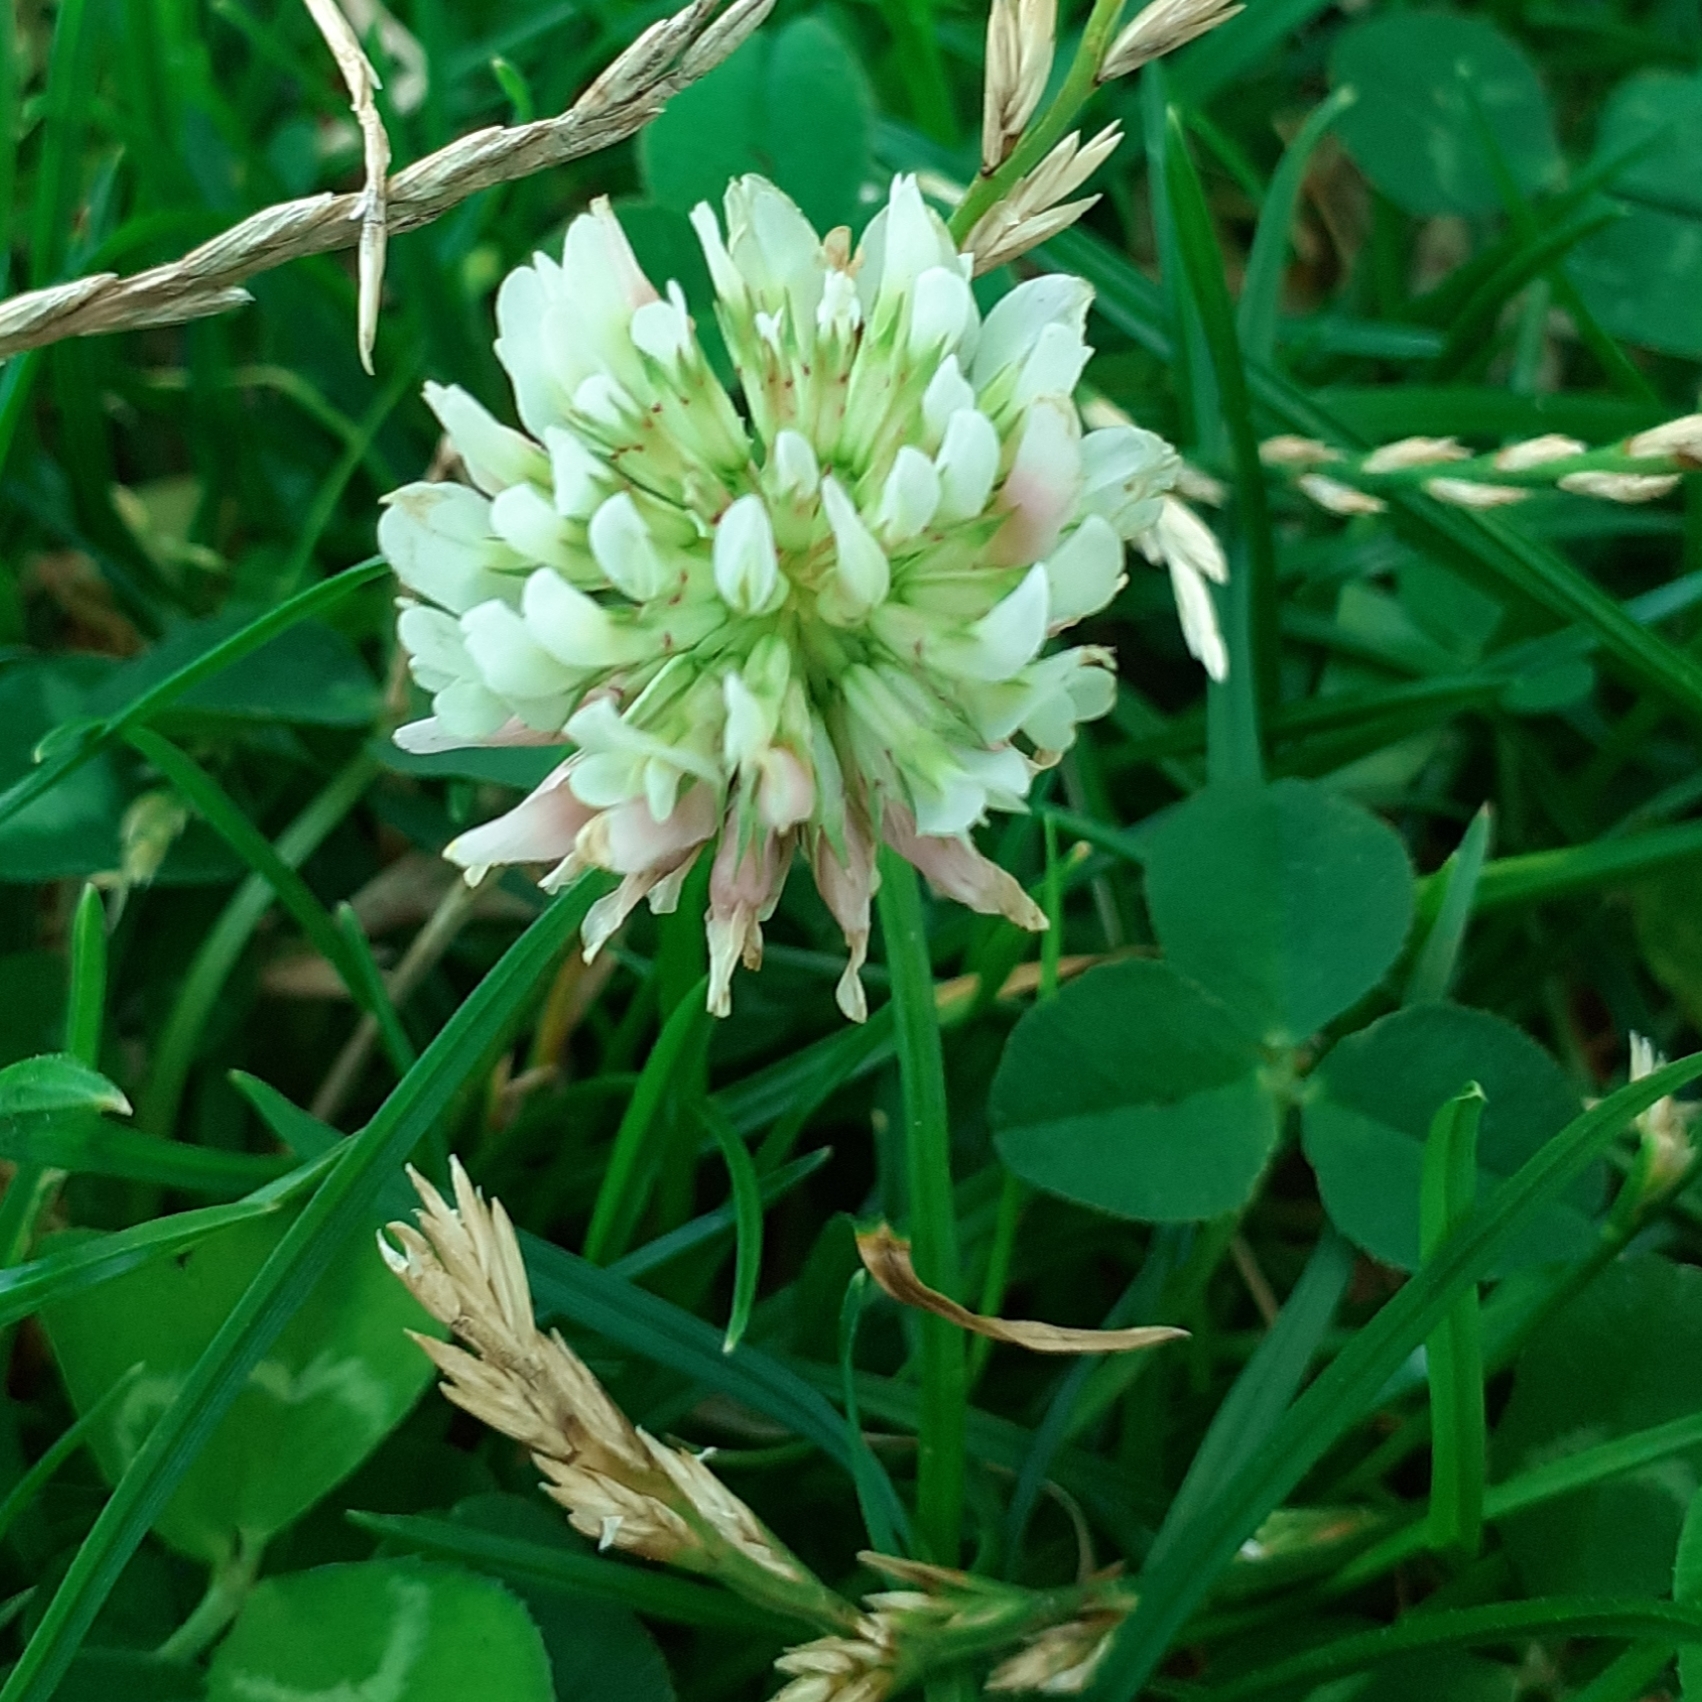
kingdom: Plantae
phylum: Tracheophyta
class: Magnoliopsida
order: Fabales
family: Fabaceae
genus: Trifolium
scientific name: Trifolium repens
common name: White clover
